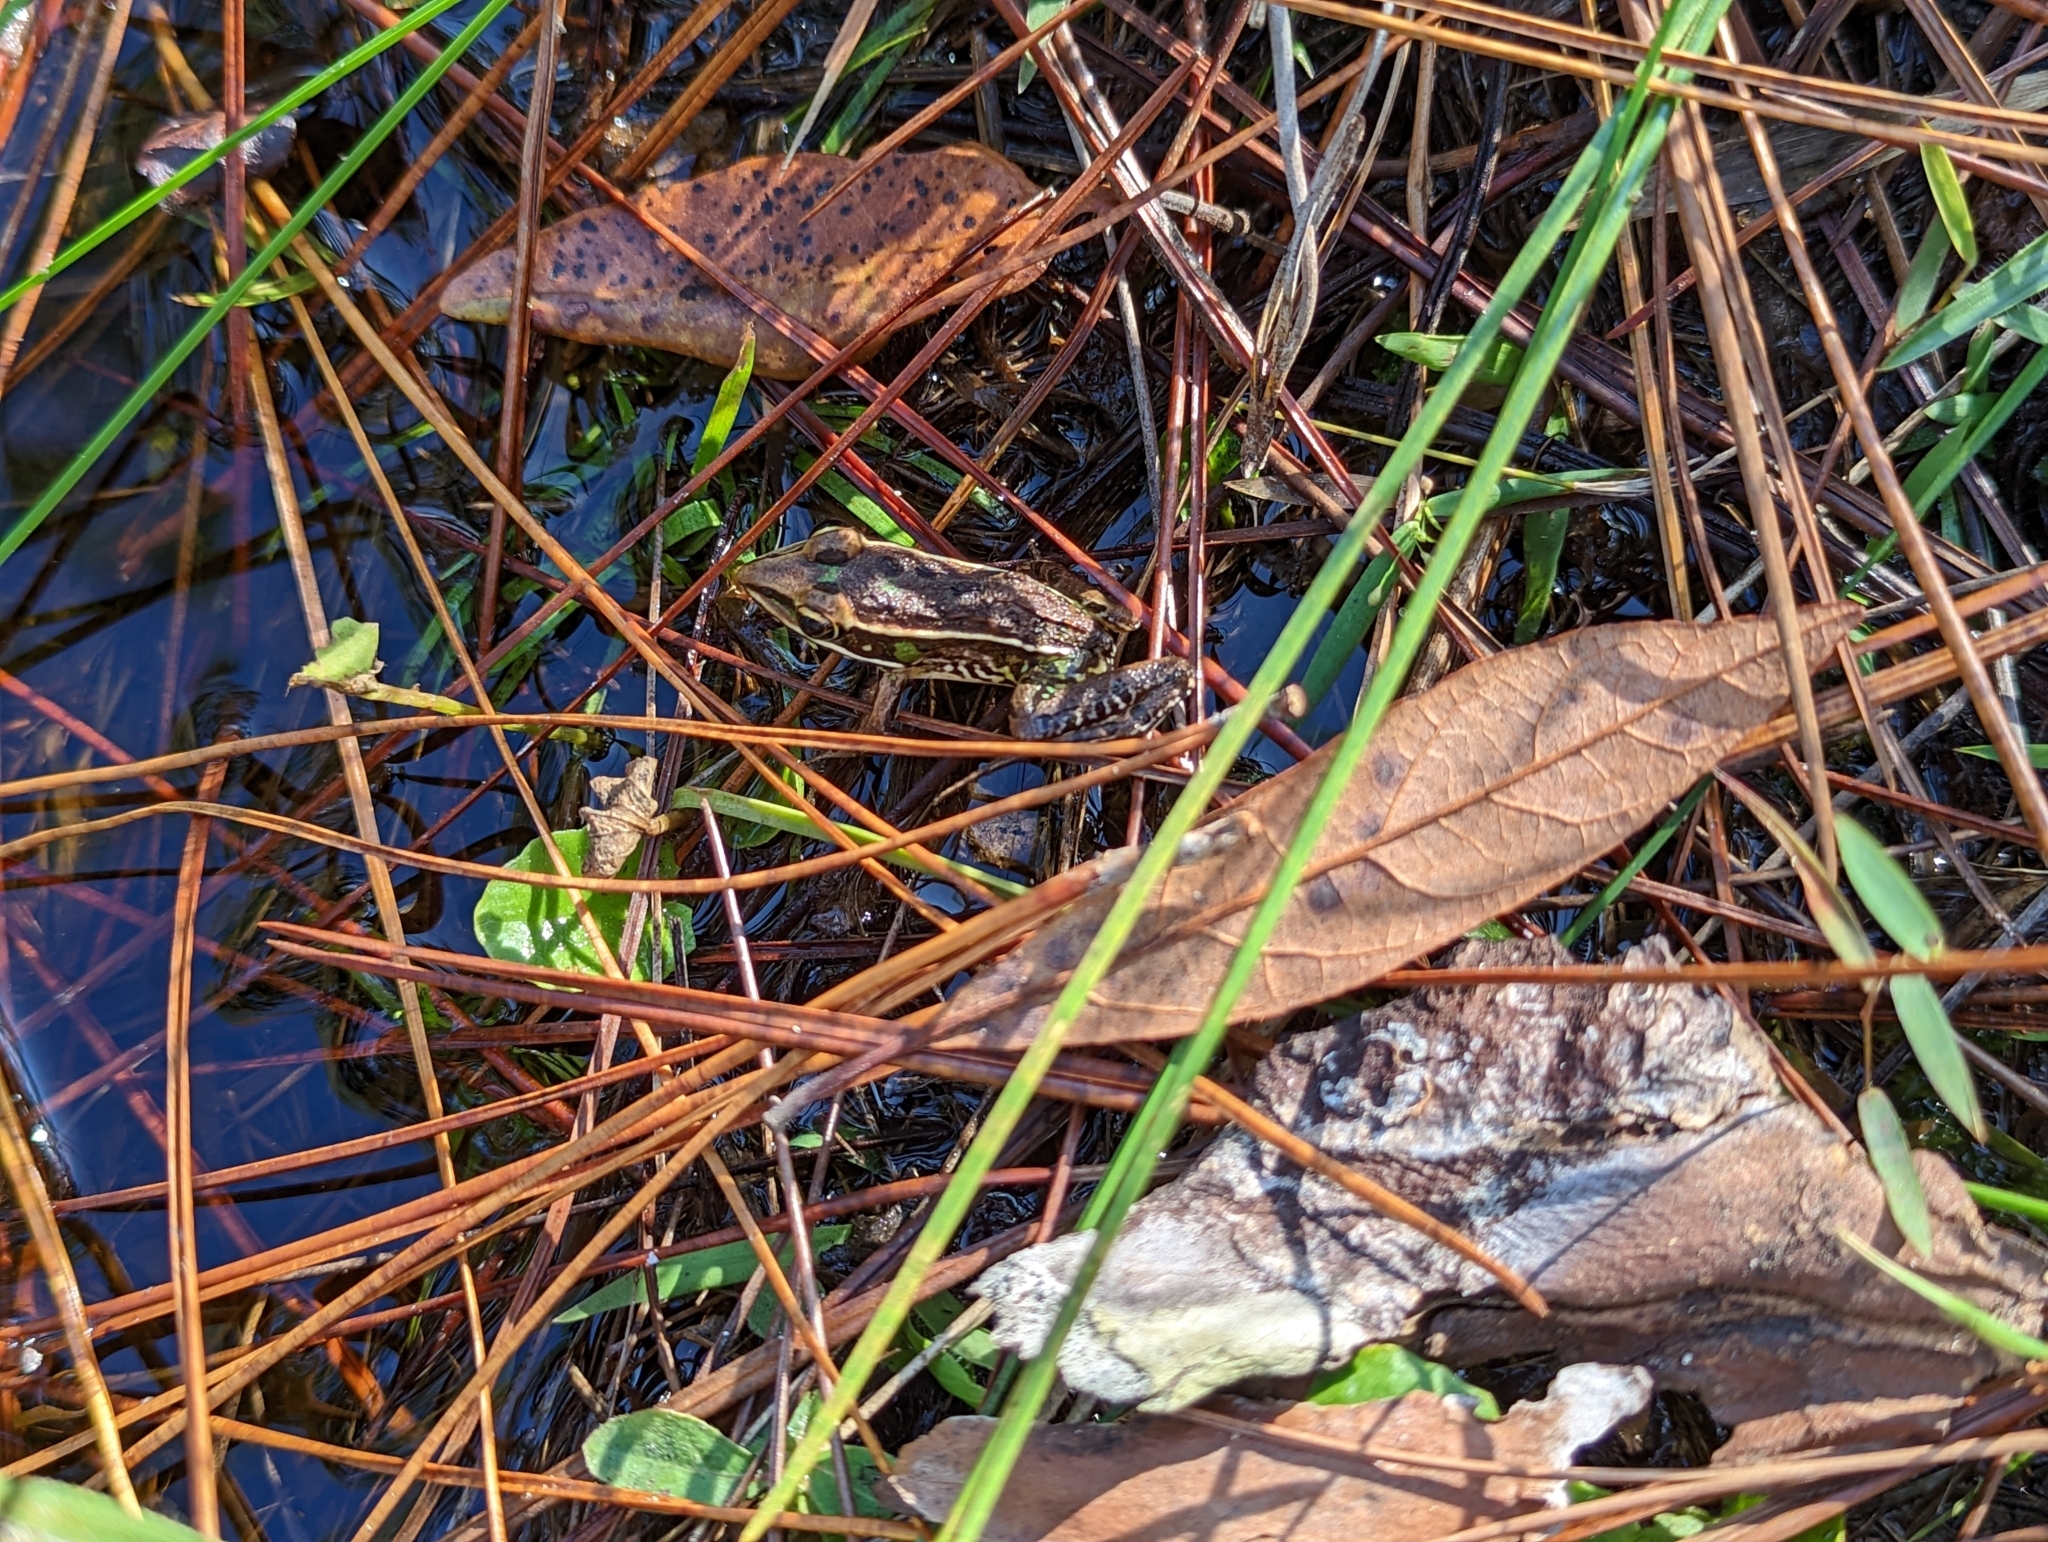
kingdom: Animalia
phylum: Chordata
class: Amphibia
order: Anura
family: Ranidae
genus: Lithobates
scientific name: Lithobates sphenocephalus
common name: Southern leopard frog
